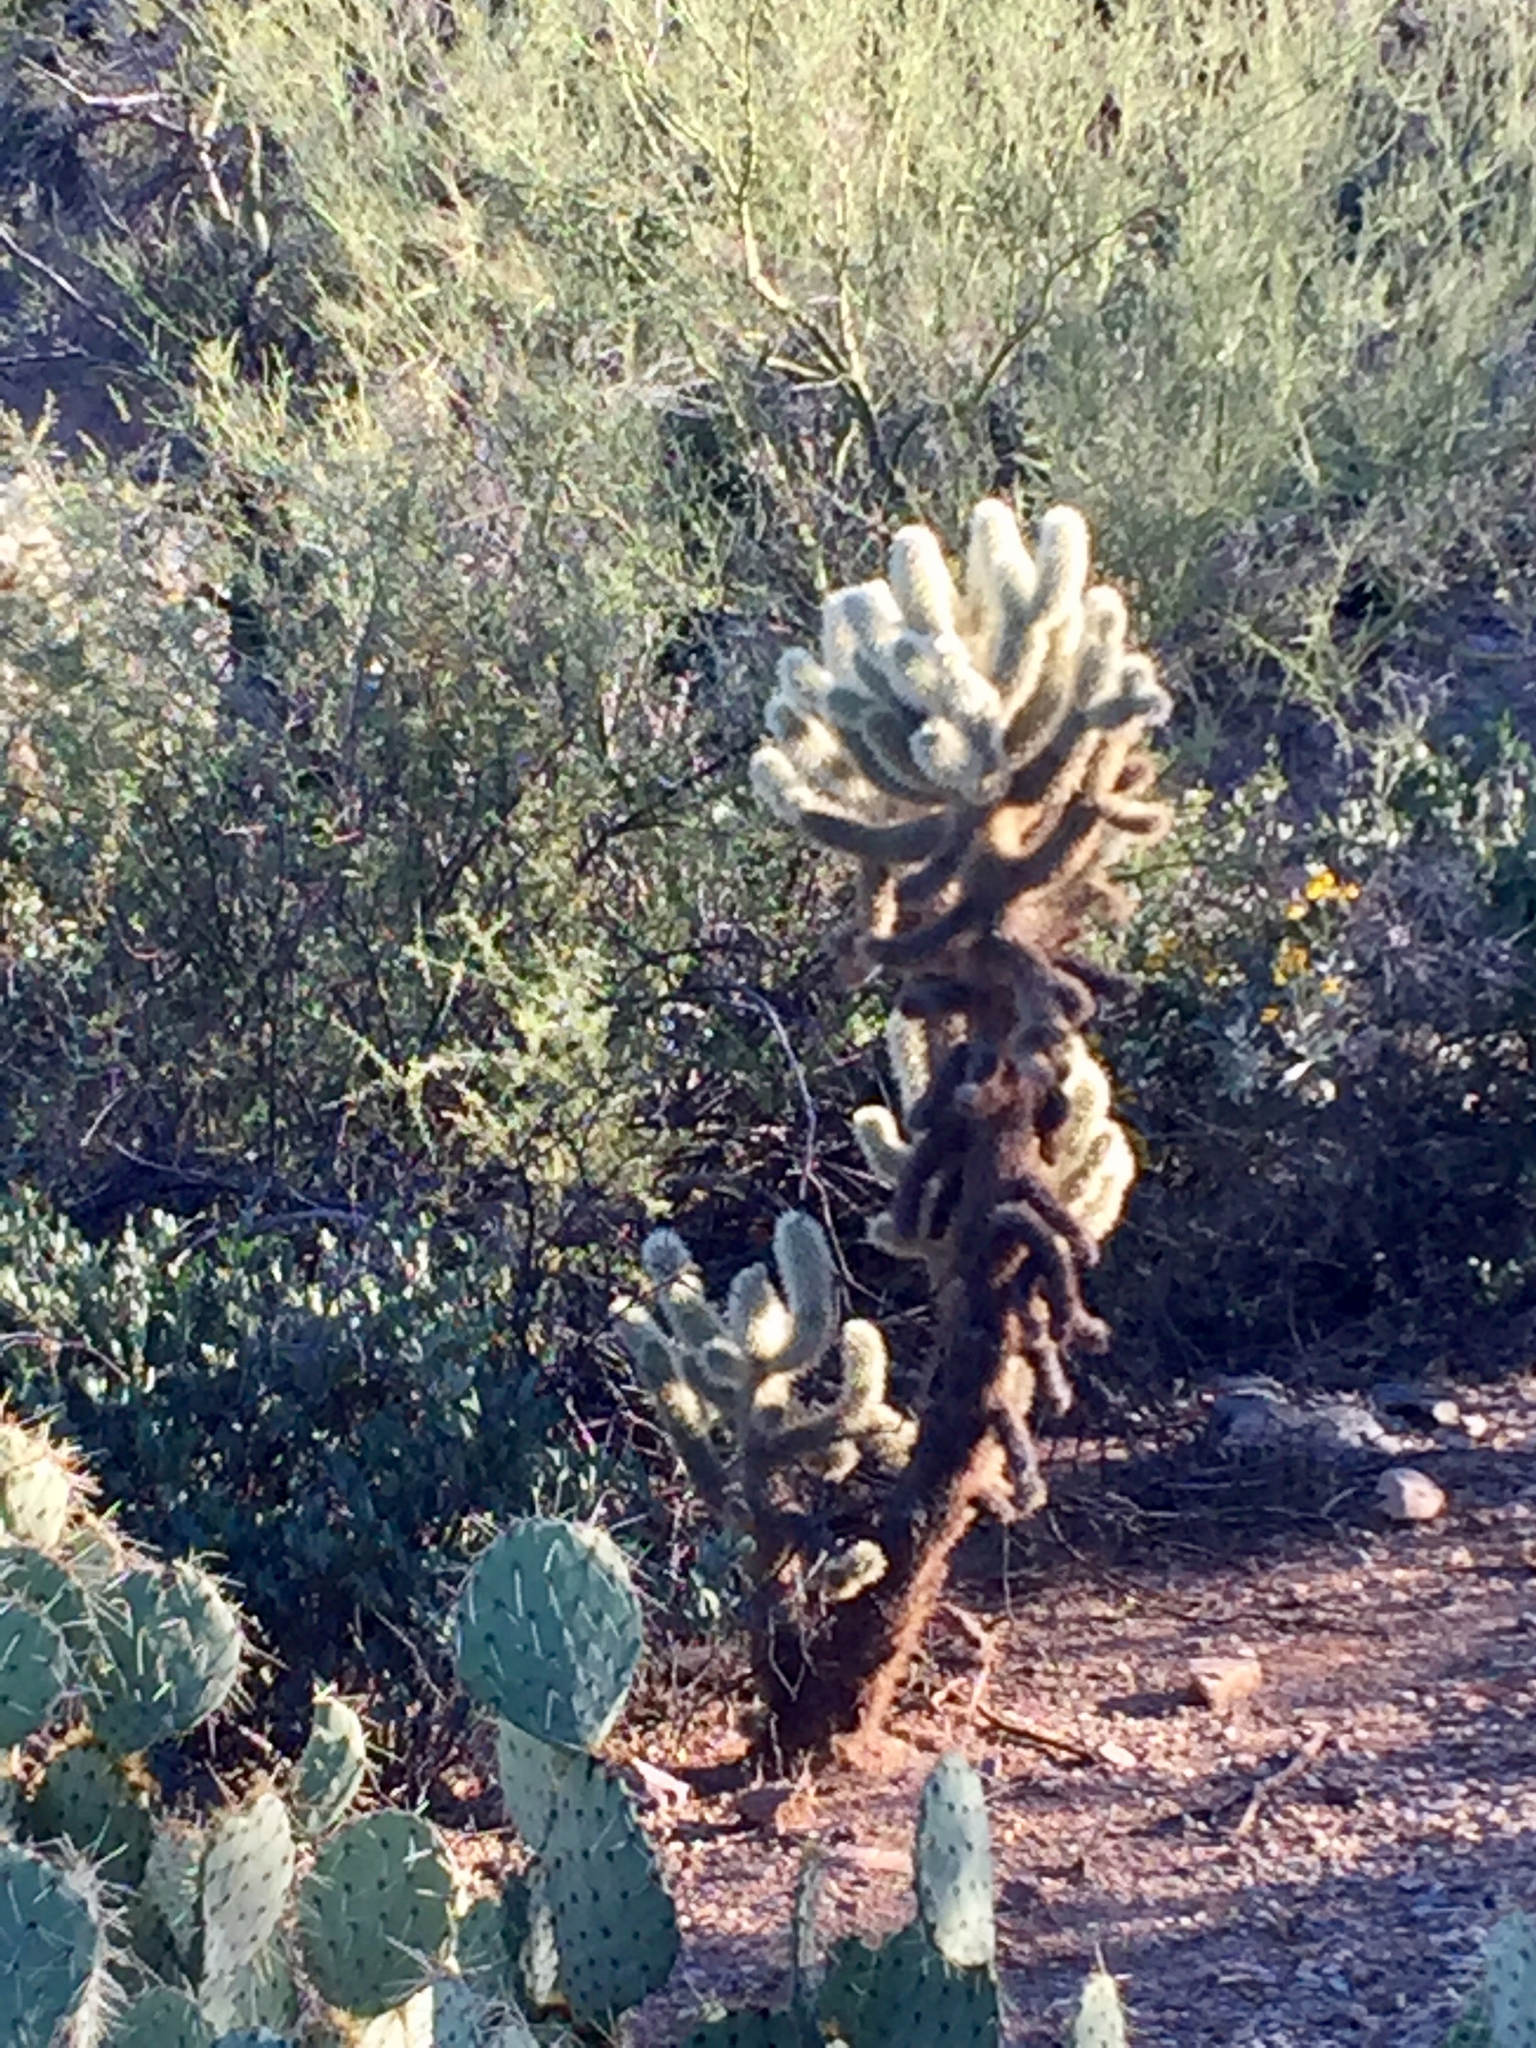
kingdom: Plantae
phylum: Tracheophyta
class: Magnoliopsida
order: Caryophyllales
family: Cactaceae
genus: Cylindropuntia
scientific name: Cylindropuntia fosbergii
